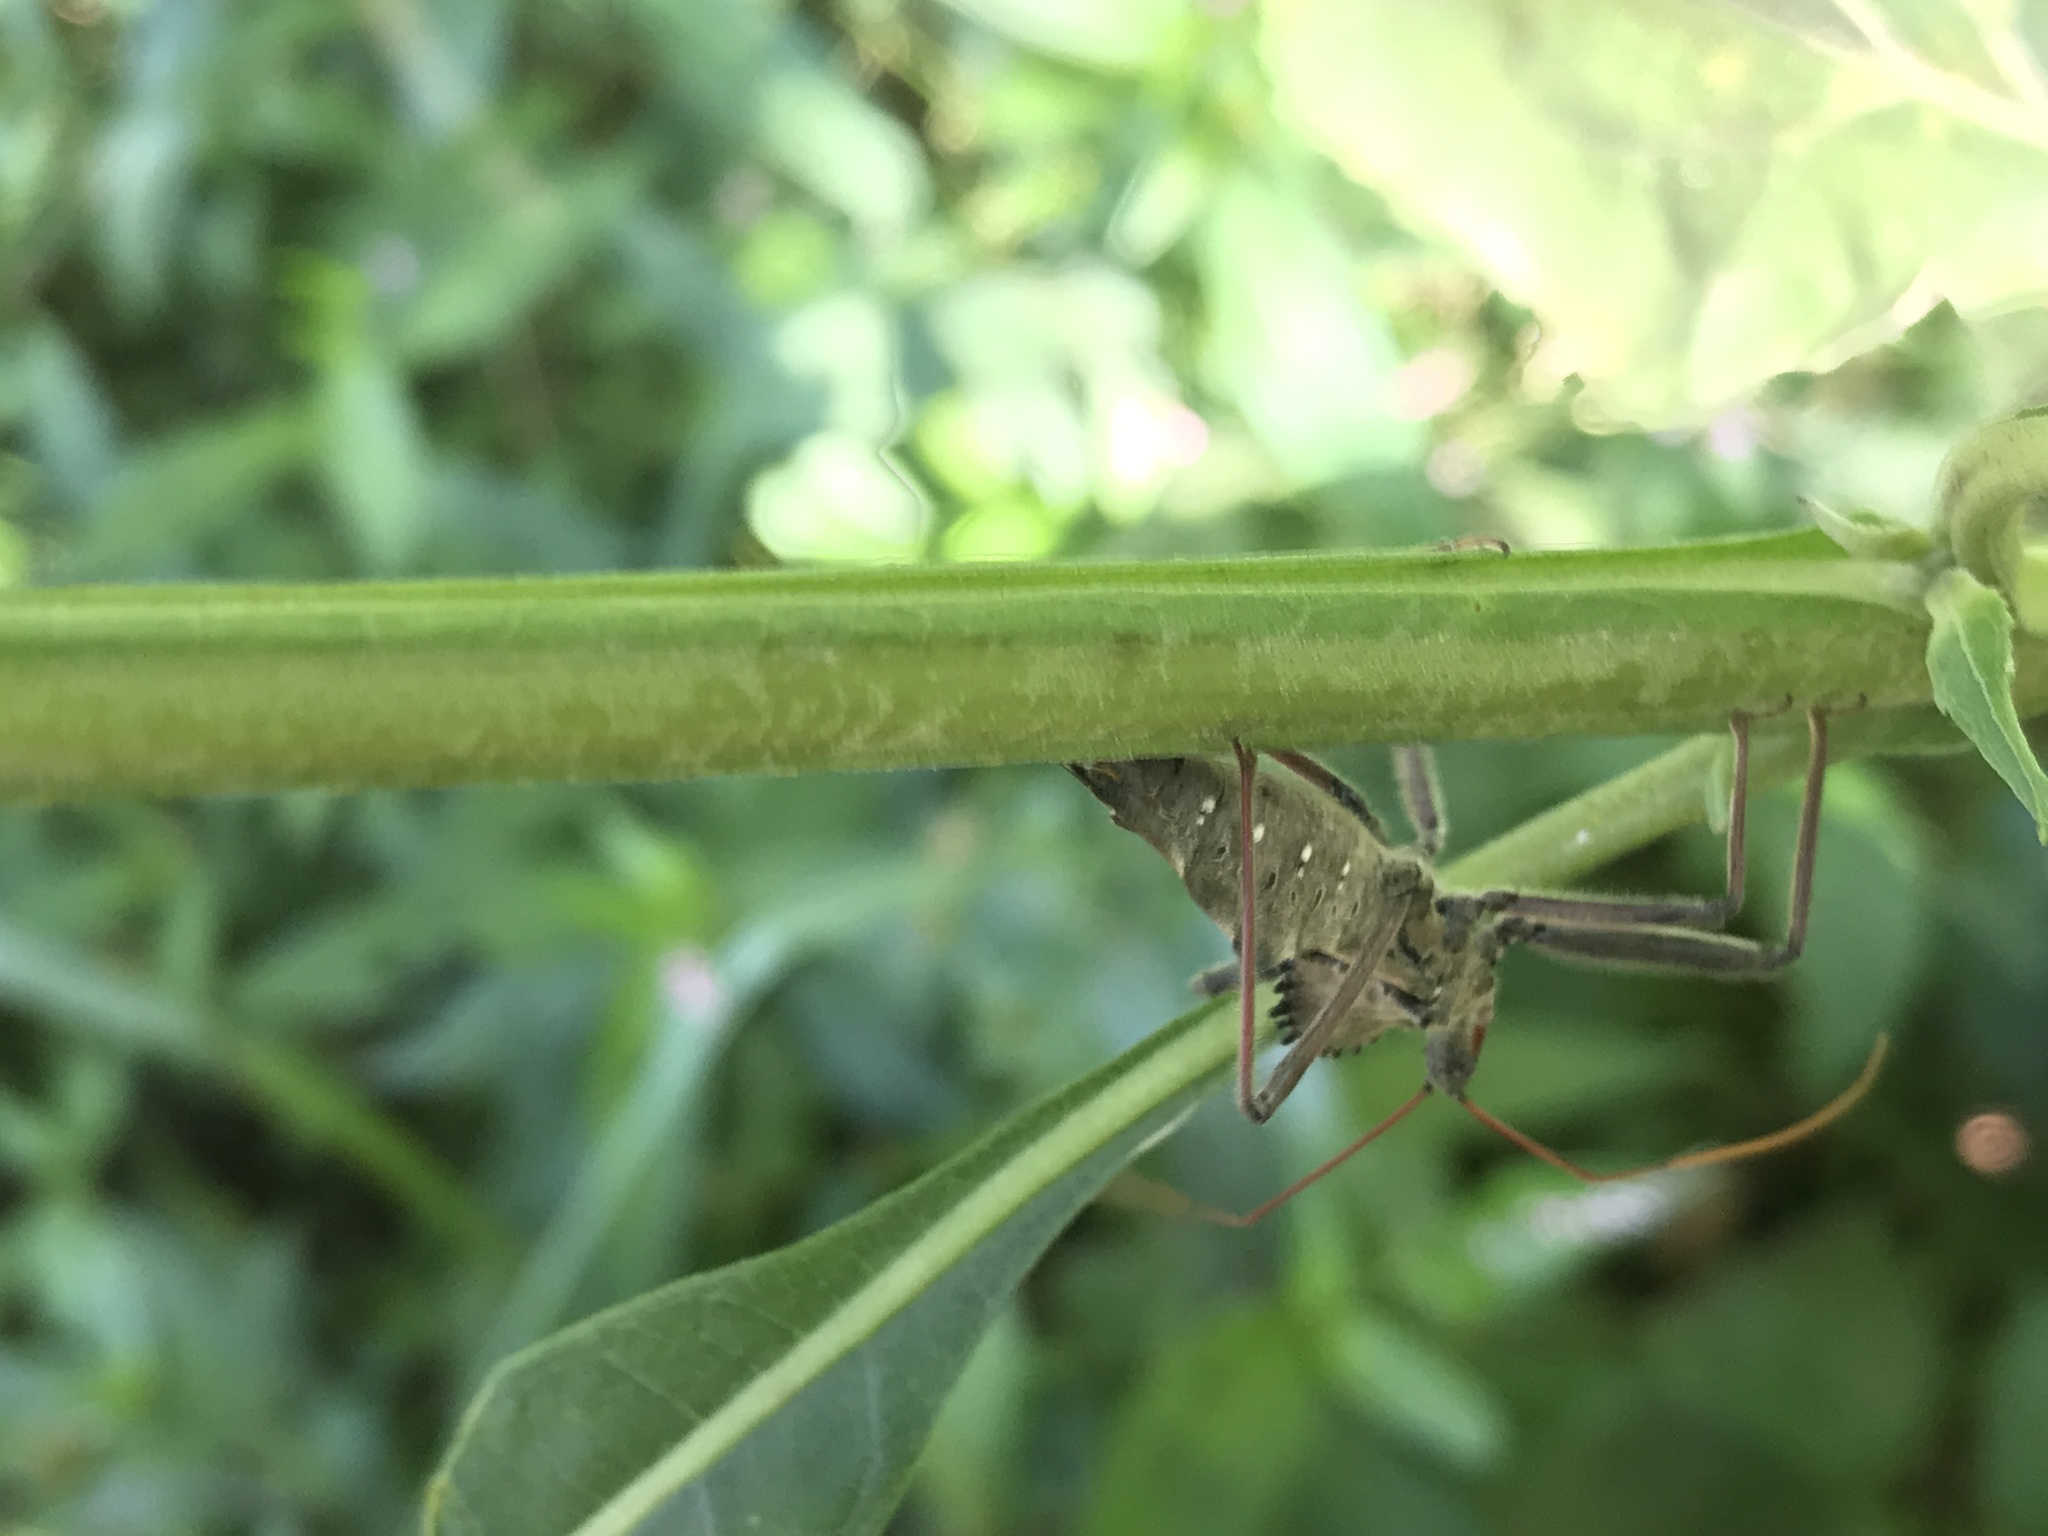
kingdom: Animalia
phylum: Arthropoda
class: Insecta
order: Hemiptera
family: Reduviidae
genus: Arilus
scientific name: Arilus cristatus
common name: North american wheel bug
